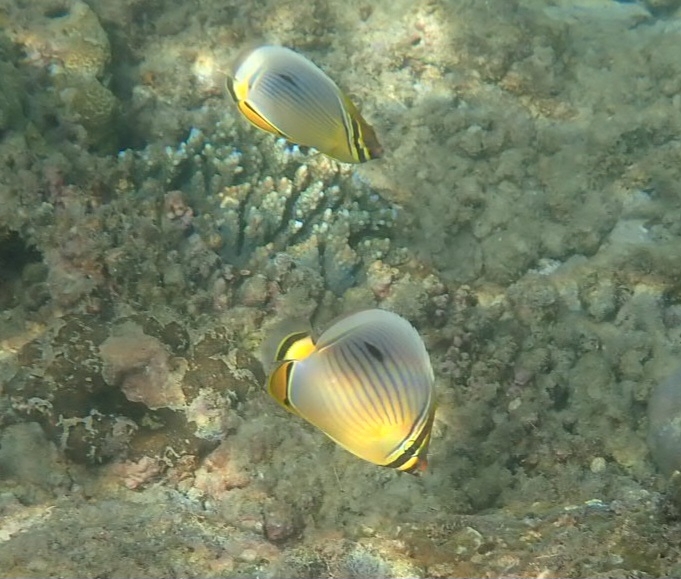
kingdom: Animalia
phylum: Chordata
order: Perciformes
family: Chaetodontidae
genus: Chaetodon
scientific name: Chaetodon trifasciatus
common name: Redfin butterflyfish
